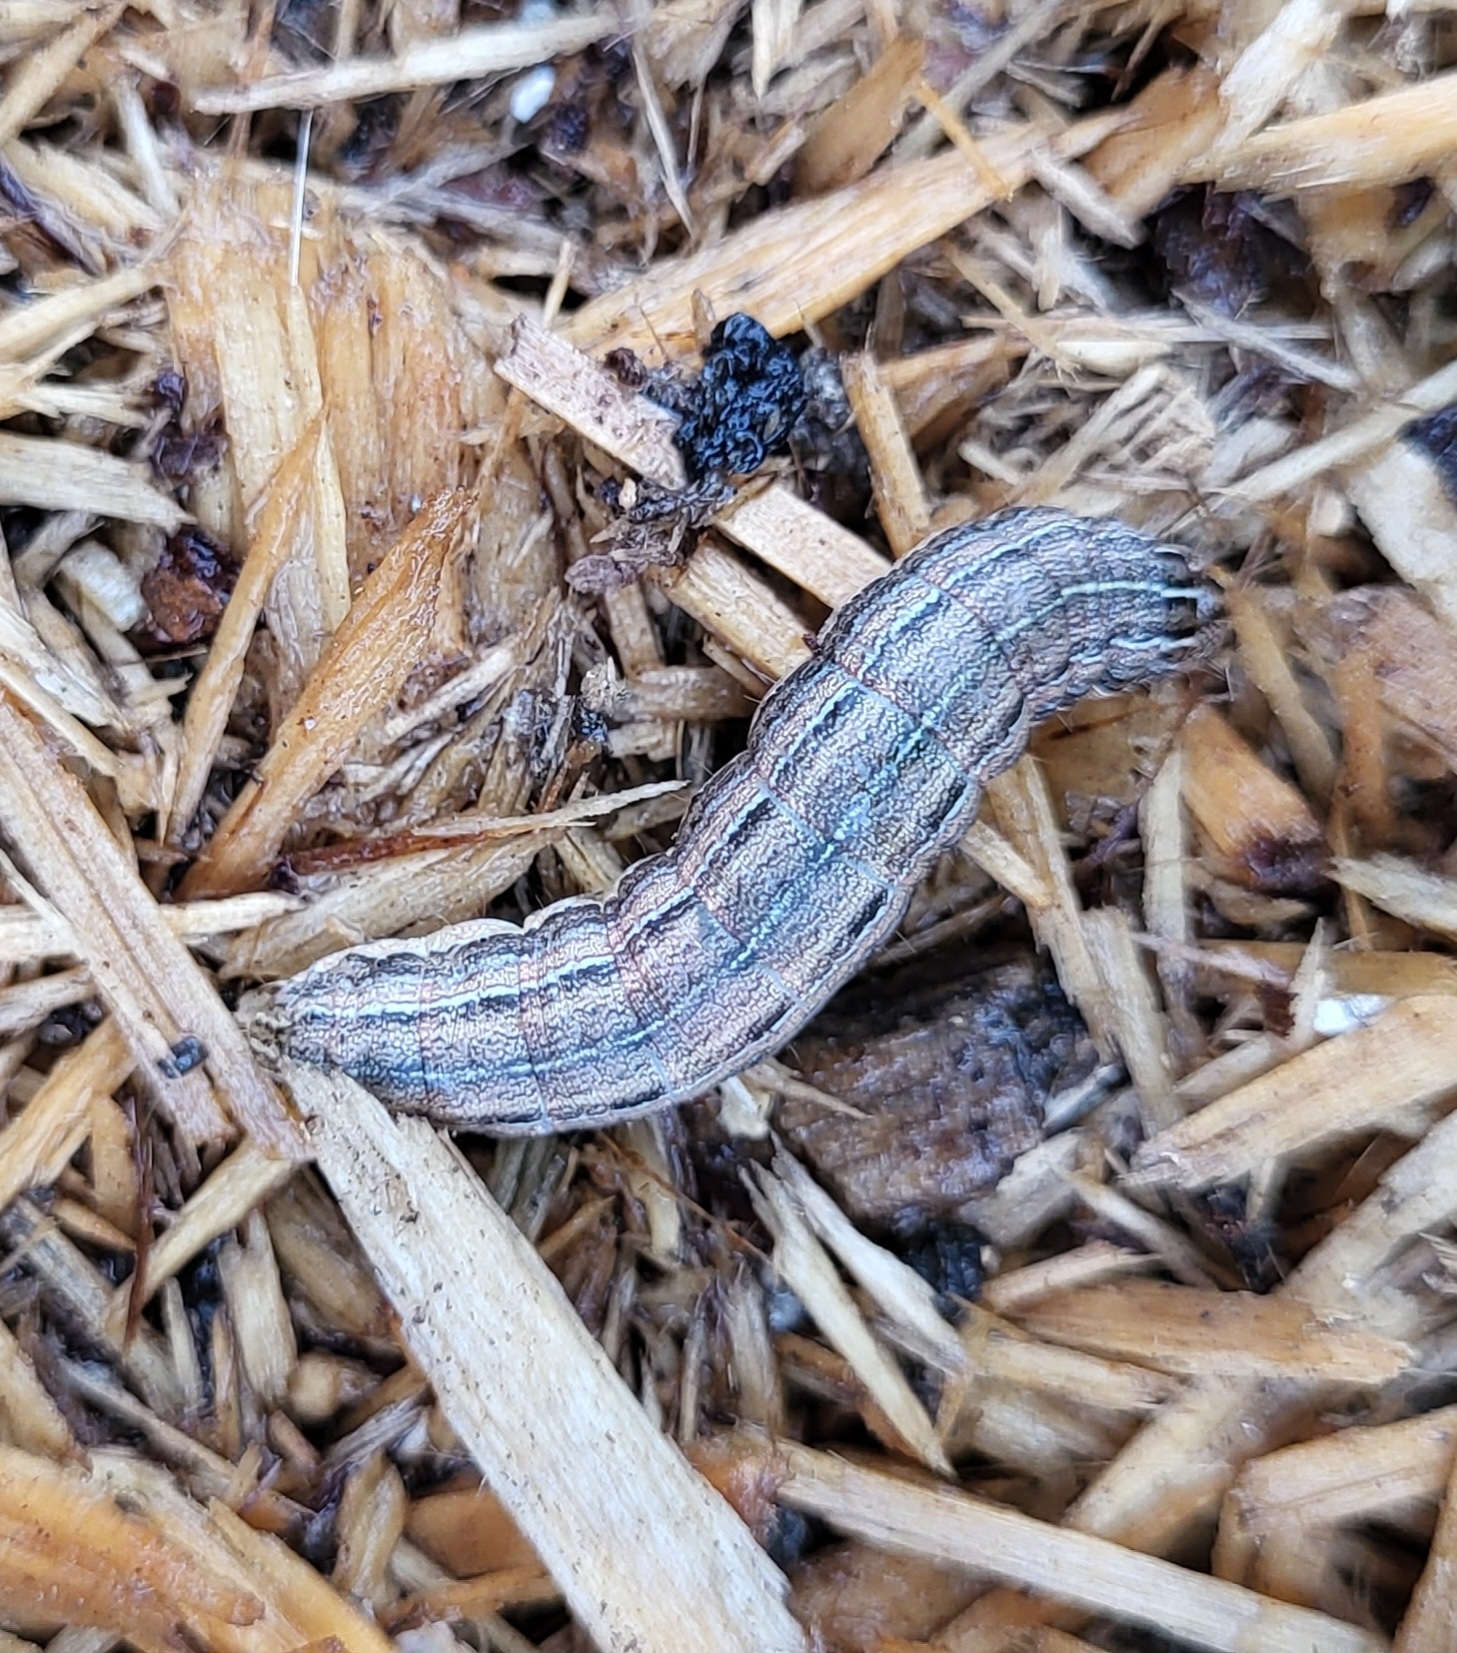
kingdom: Animalia
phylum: Arthropoda
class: Insecta
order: Lepidoptera
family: Noctuidae
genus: Mythimna
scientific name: Mythimna unipuncta
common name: White-speck
